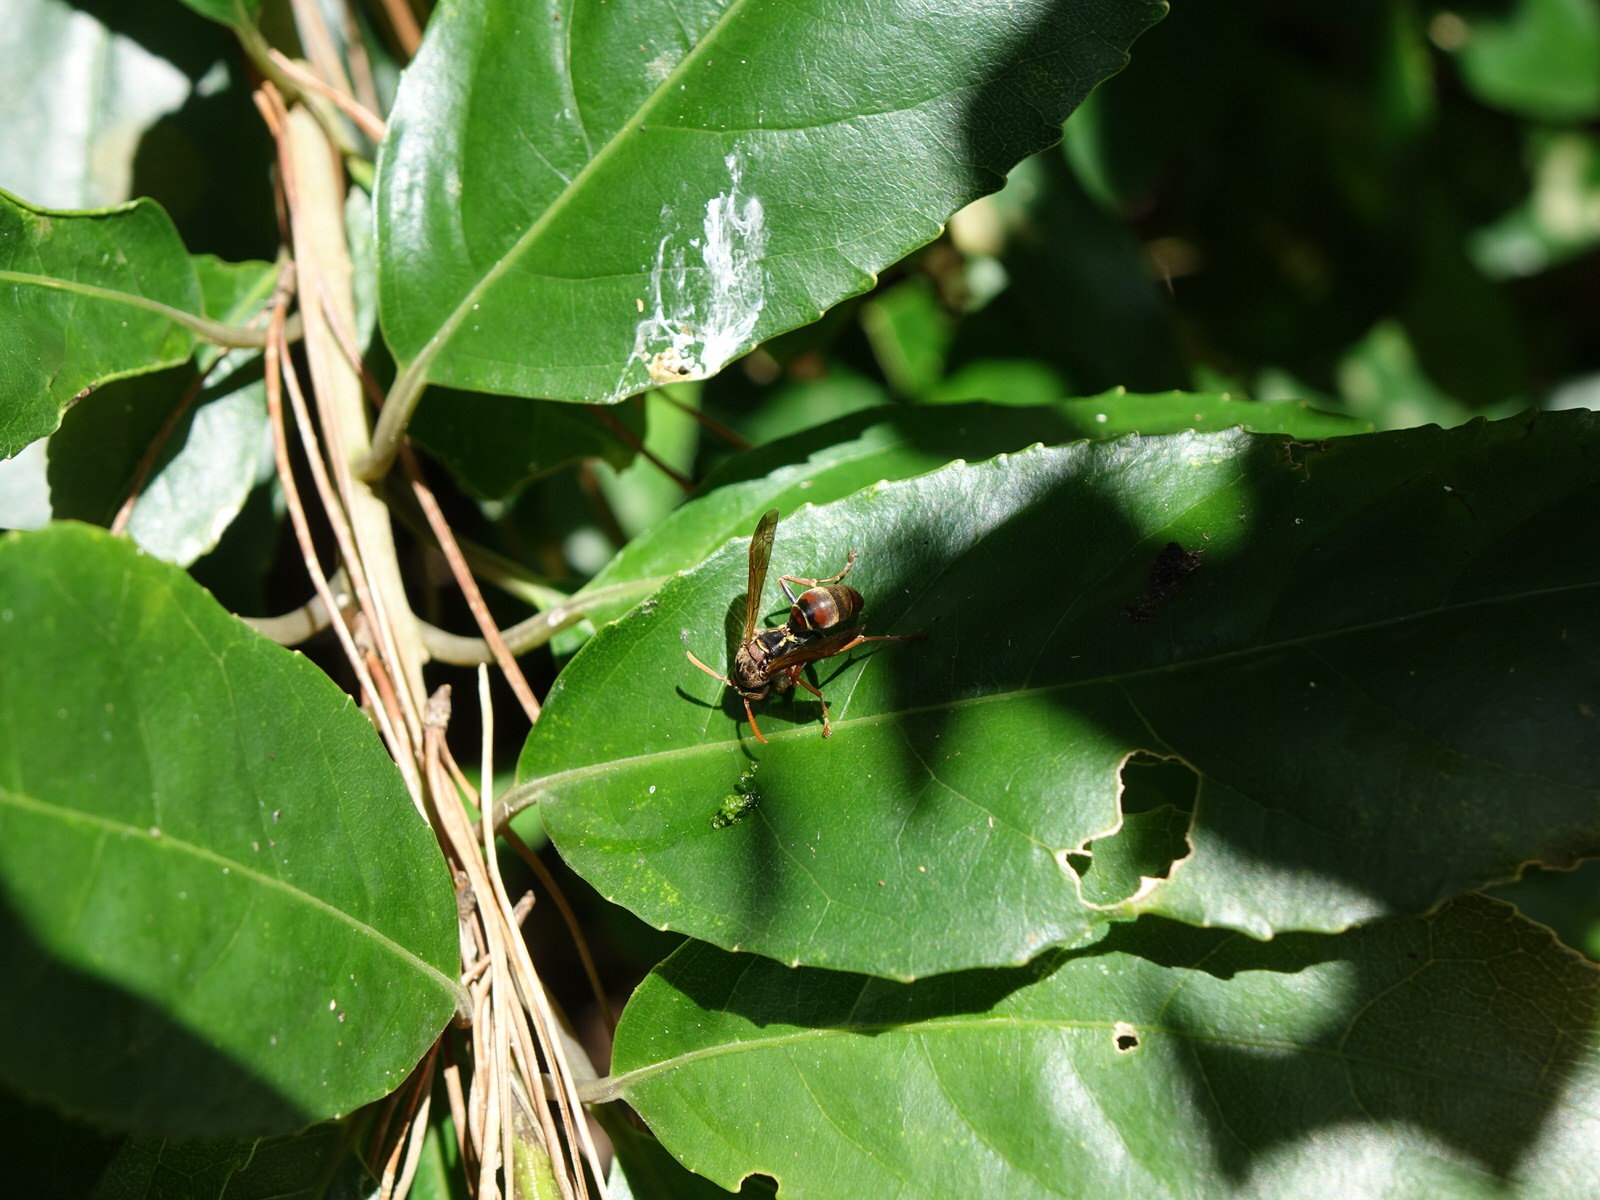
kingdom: Animalia
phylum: Arthropoda
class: Insecta
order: Hymenoptera
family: Eumenidae
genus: Polistes
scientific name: Polistes humilis
